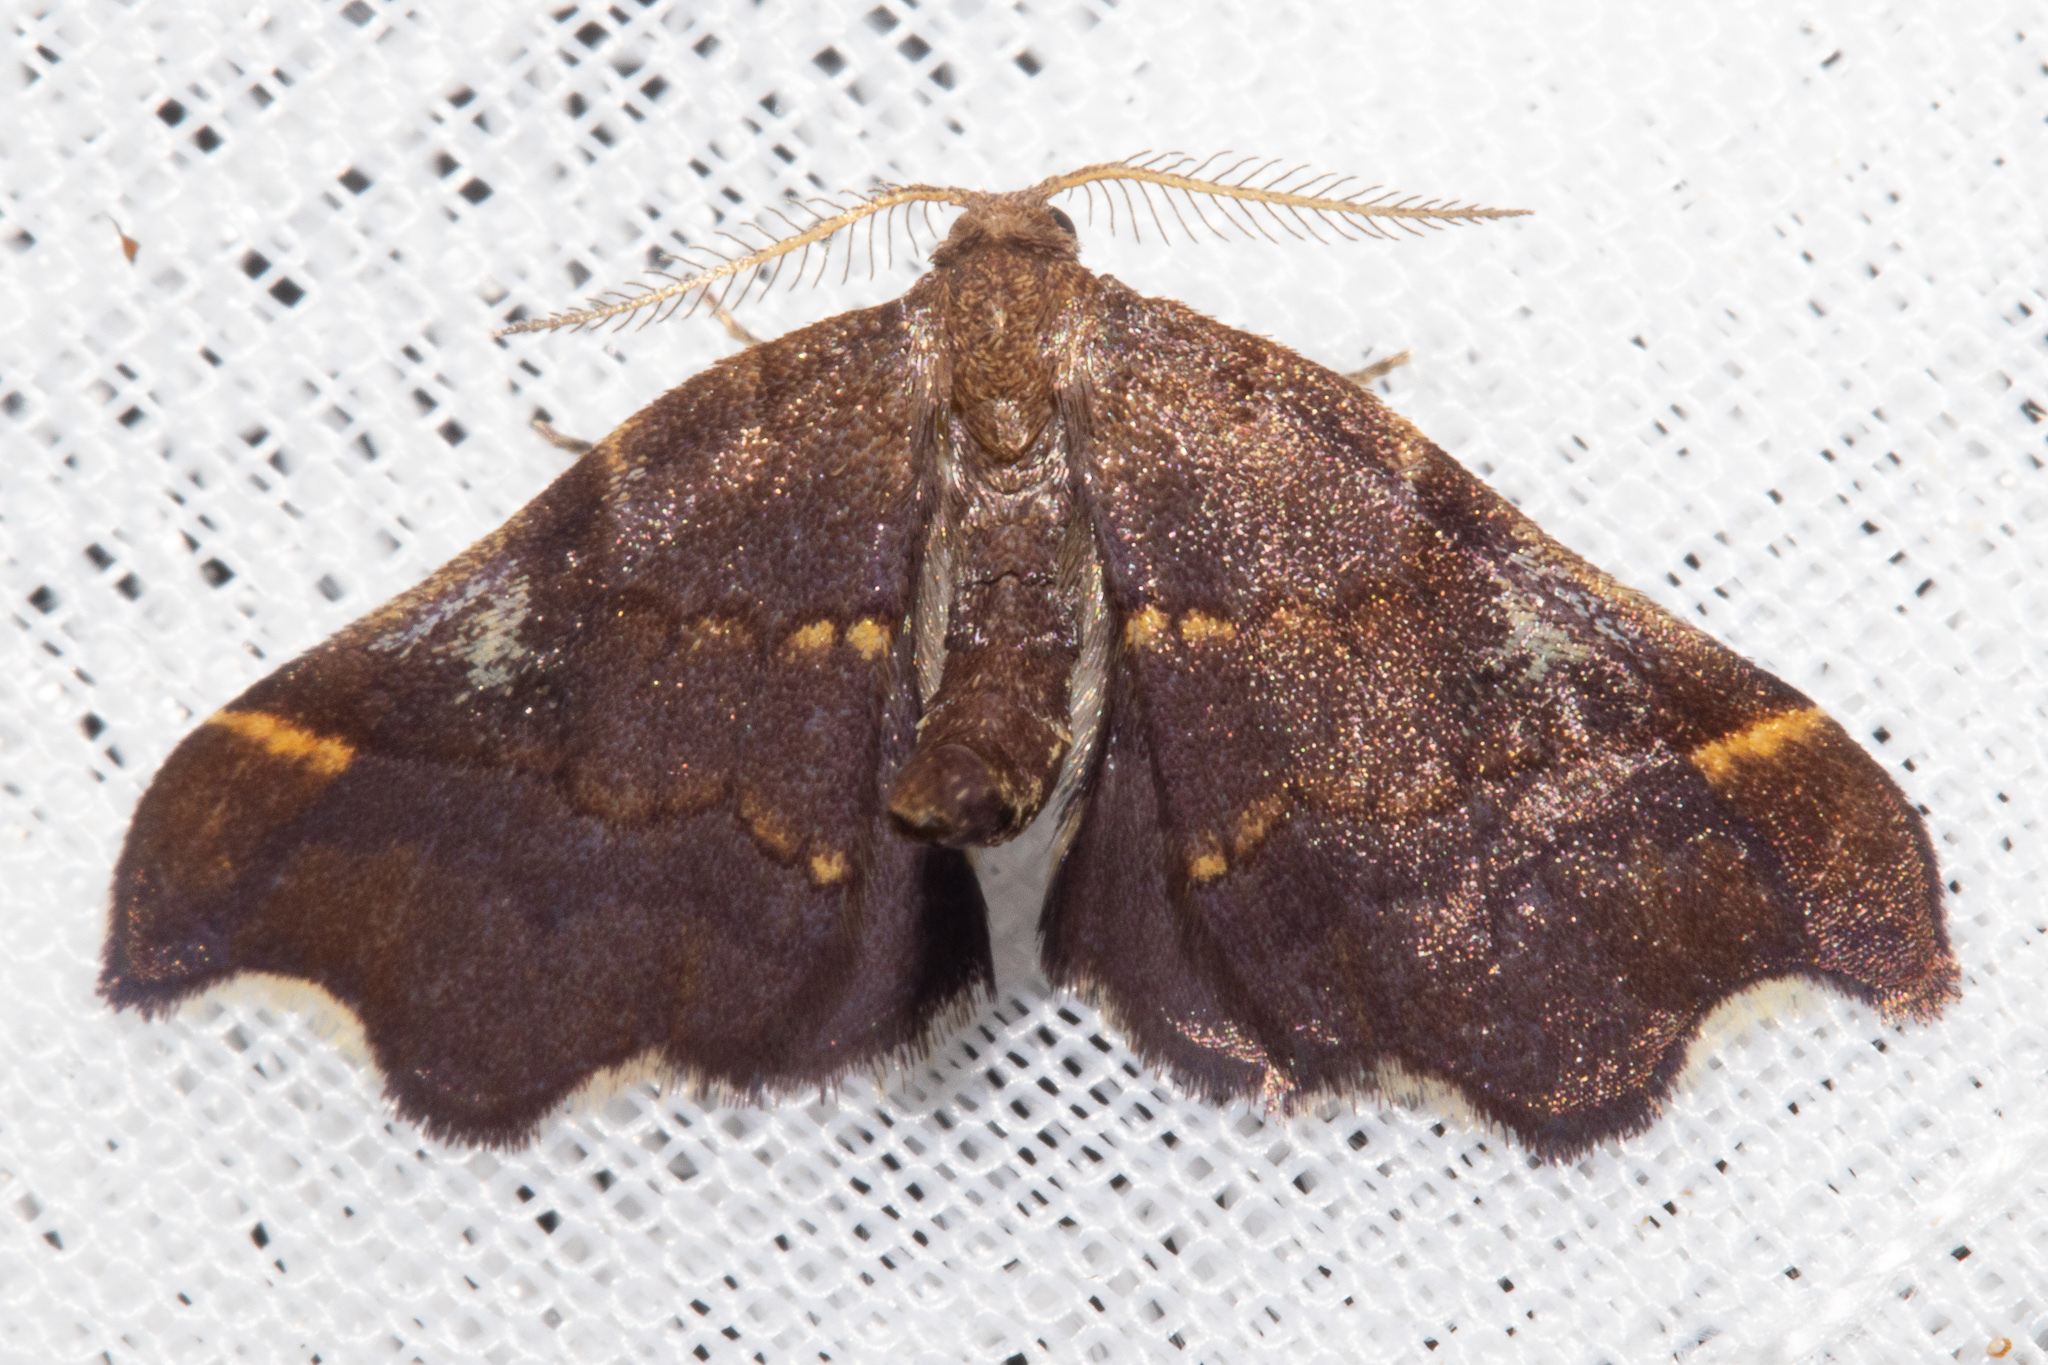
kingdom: Animalia
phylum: Arthropoda
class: Insecta
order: Lepidoptera
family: Geometridae
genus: Paradetis
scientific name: Paradetis porphyrias
